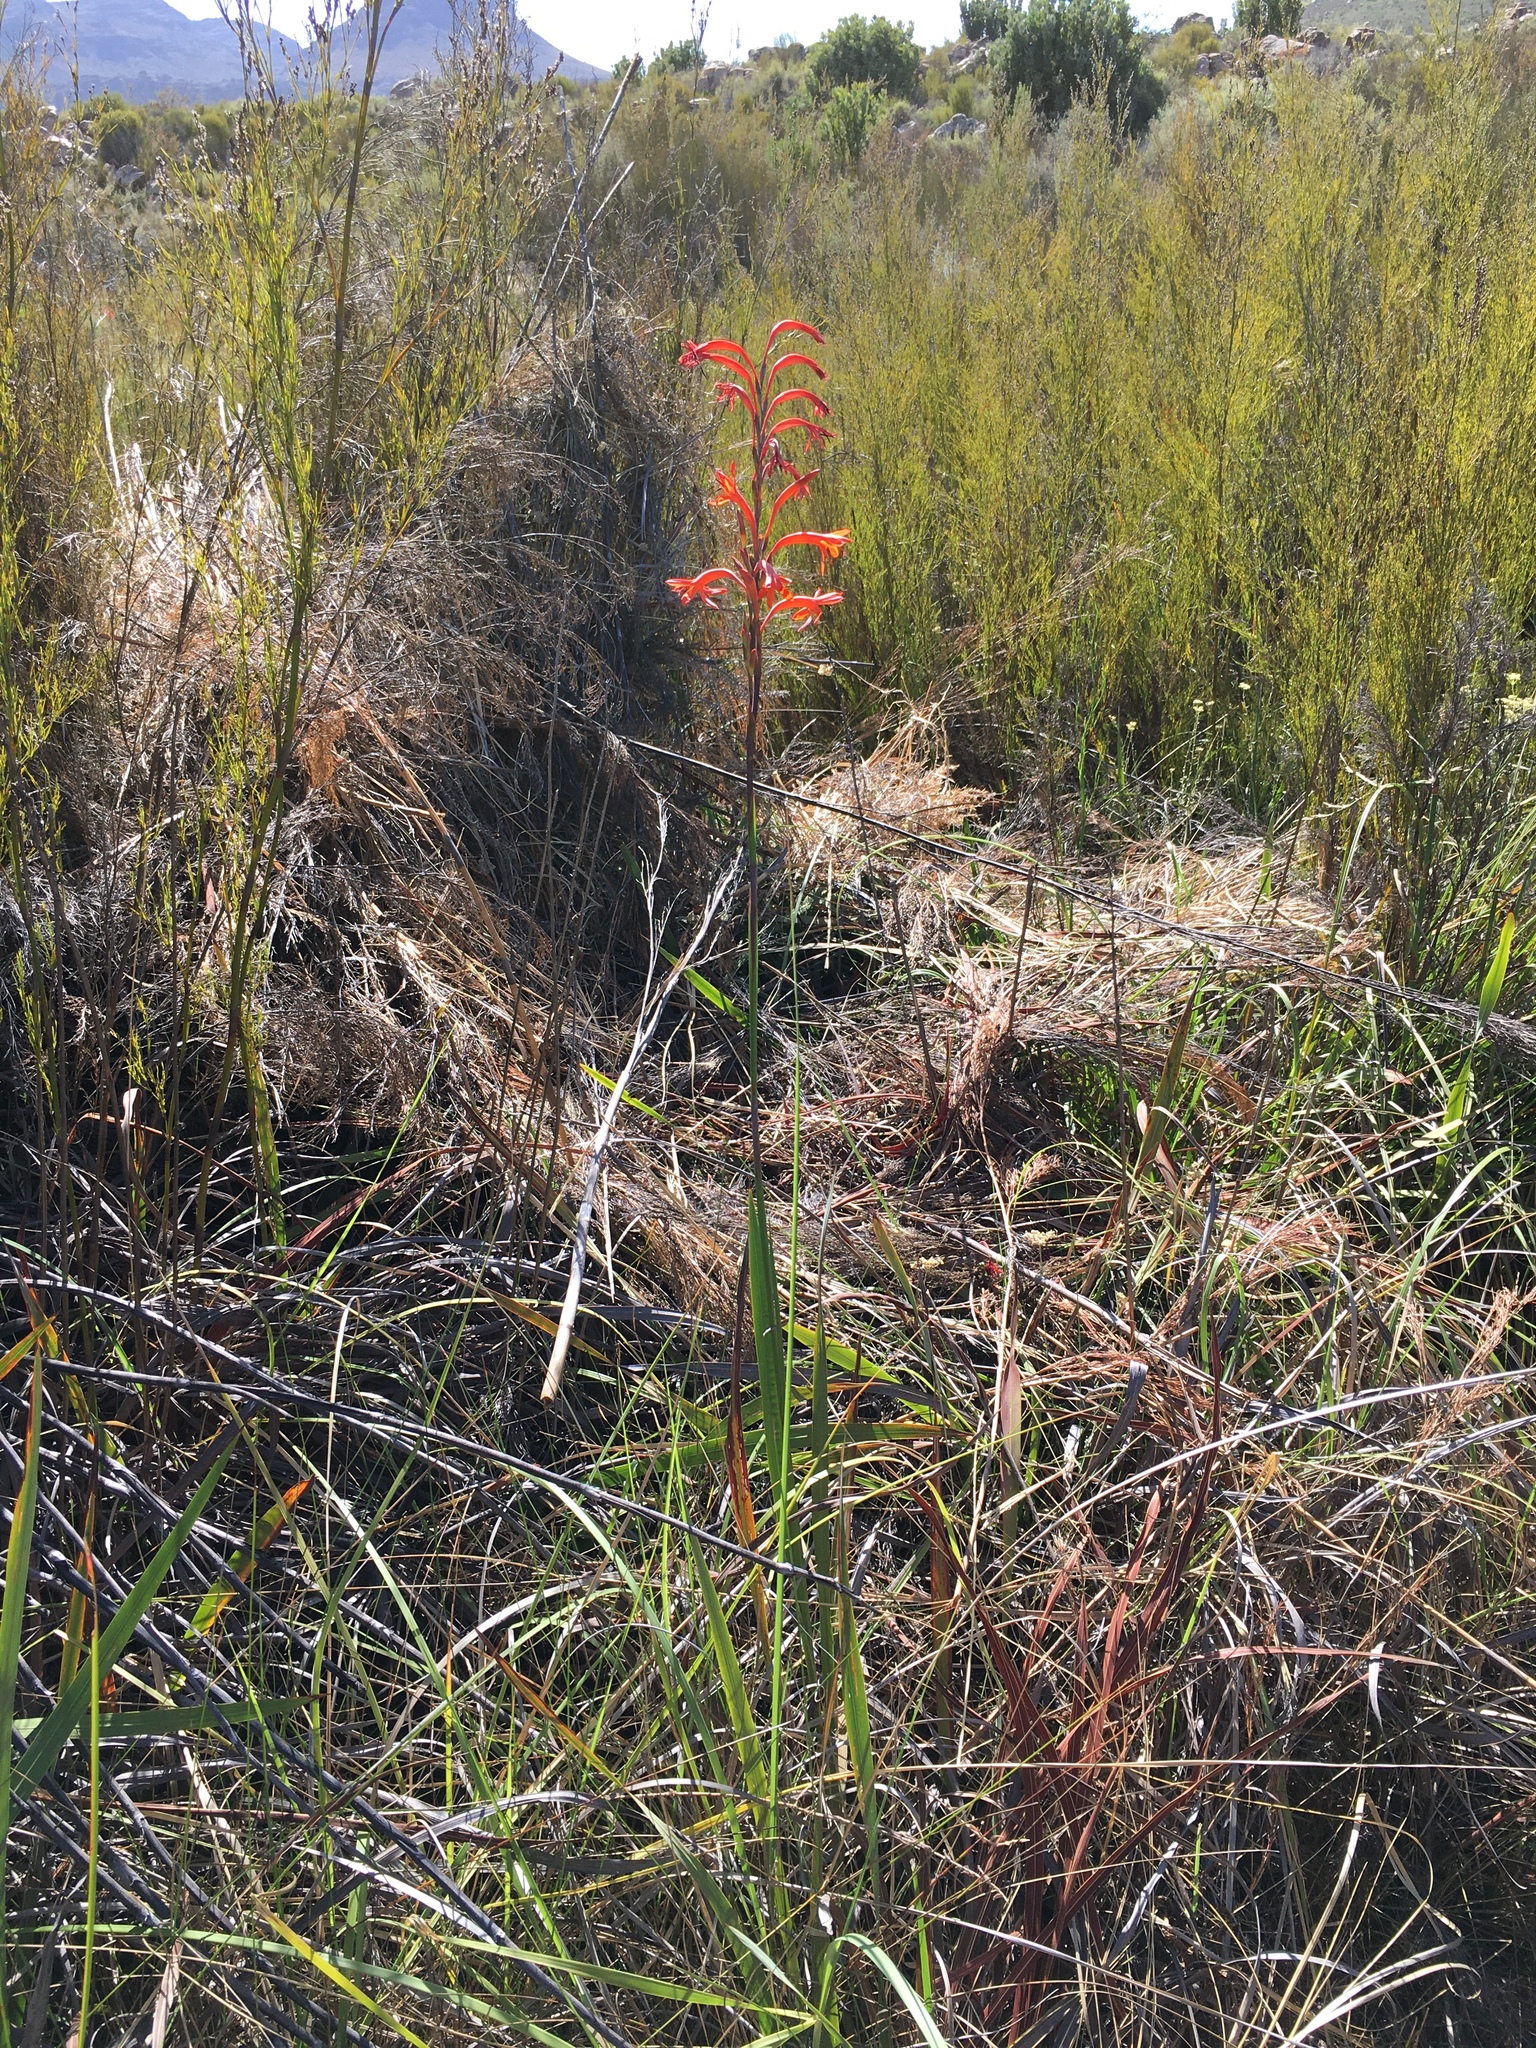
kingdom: Plantae
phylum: Tracheophyta
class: Liliopsida
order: Asparagales
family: Iridaceae
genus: Watsonia
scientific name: Watsonia stokoei
